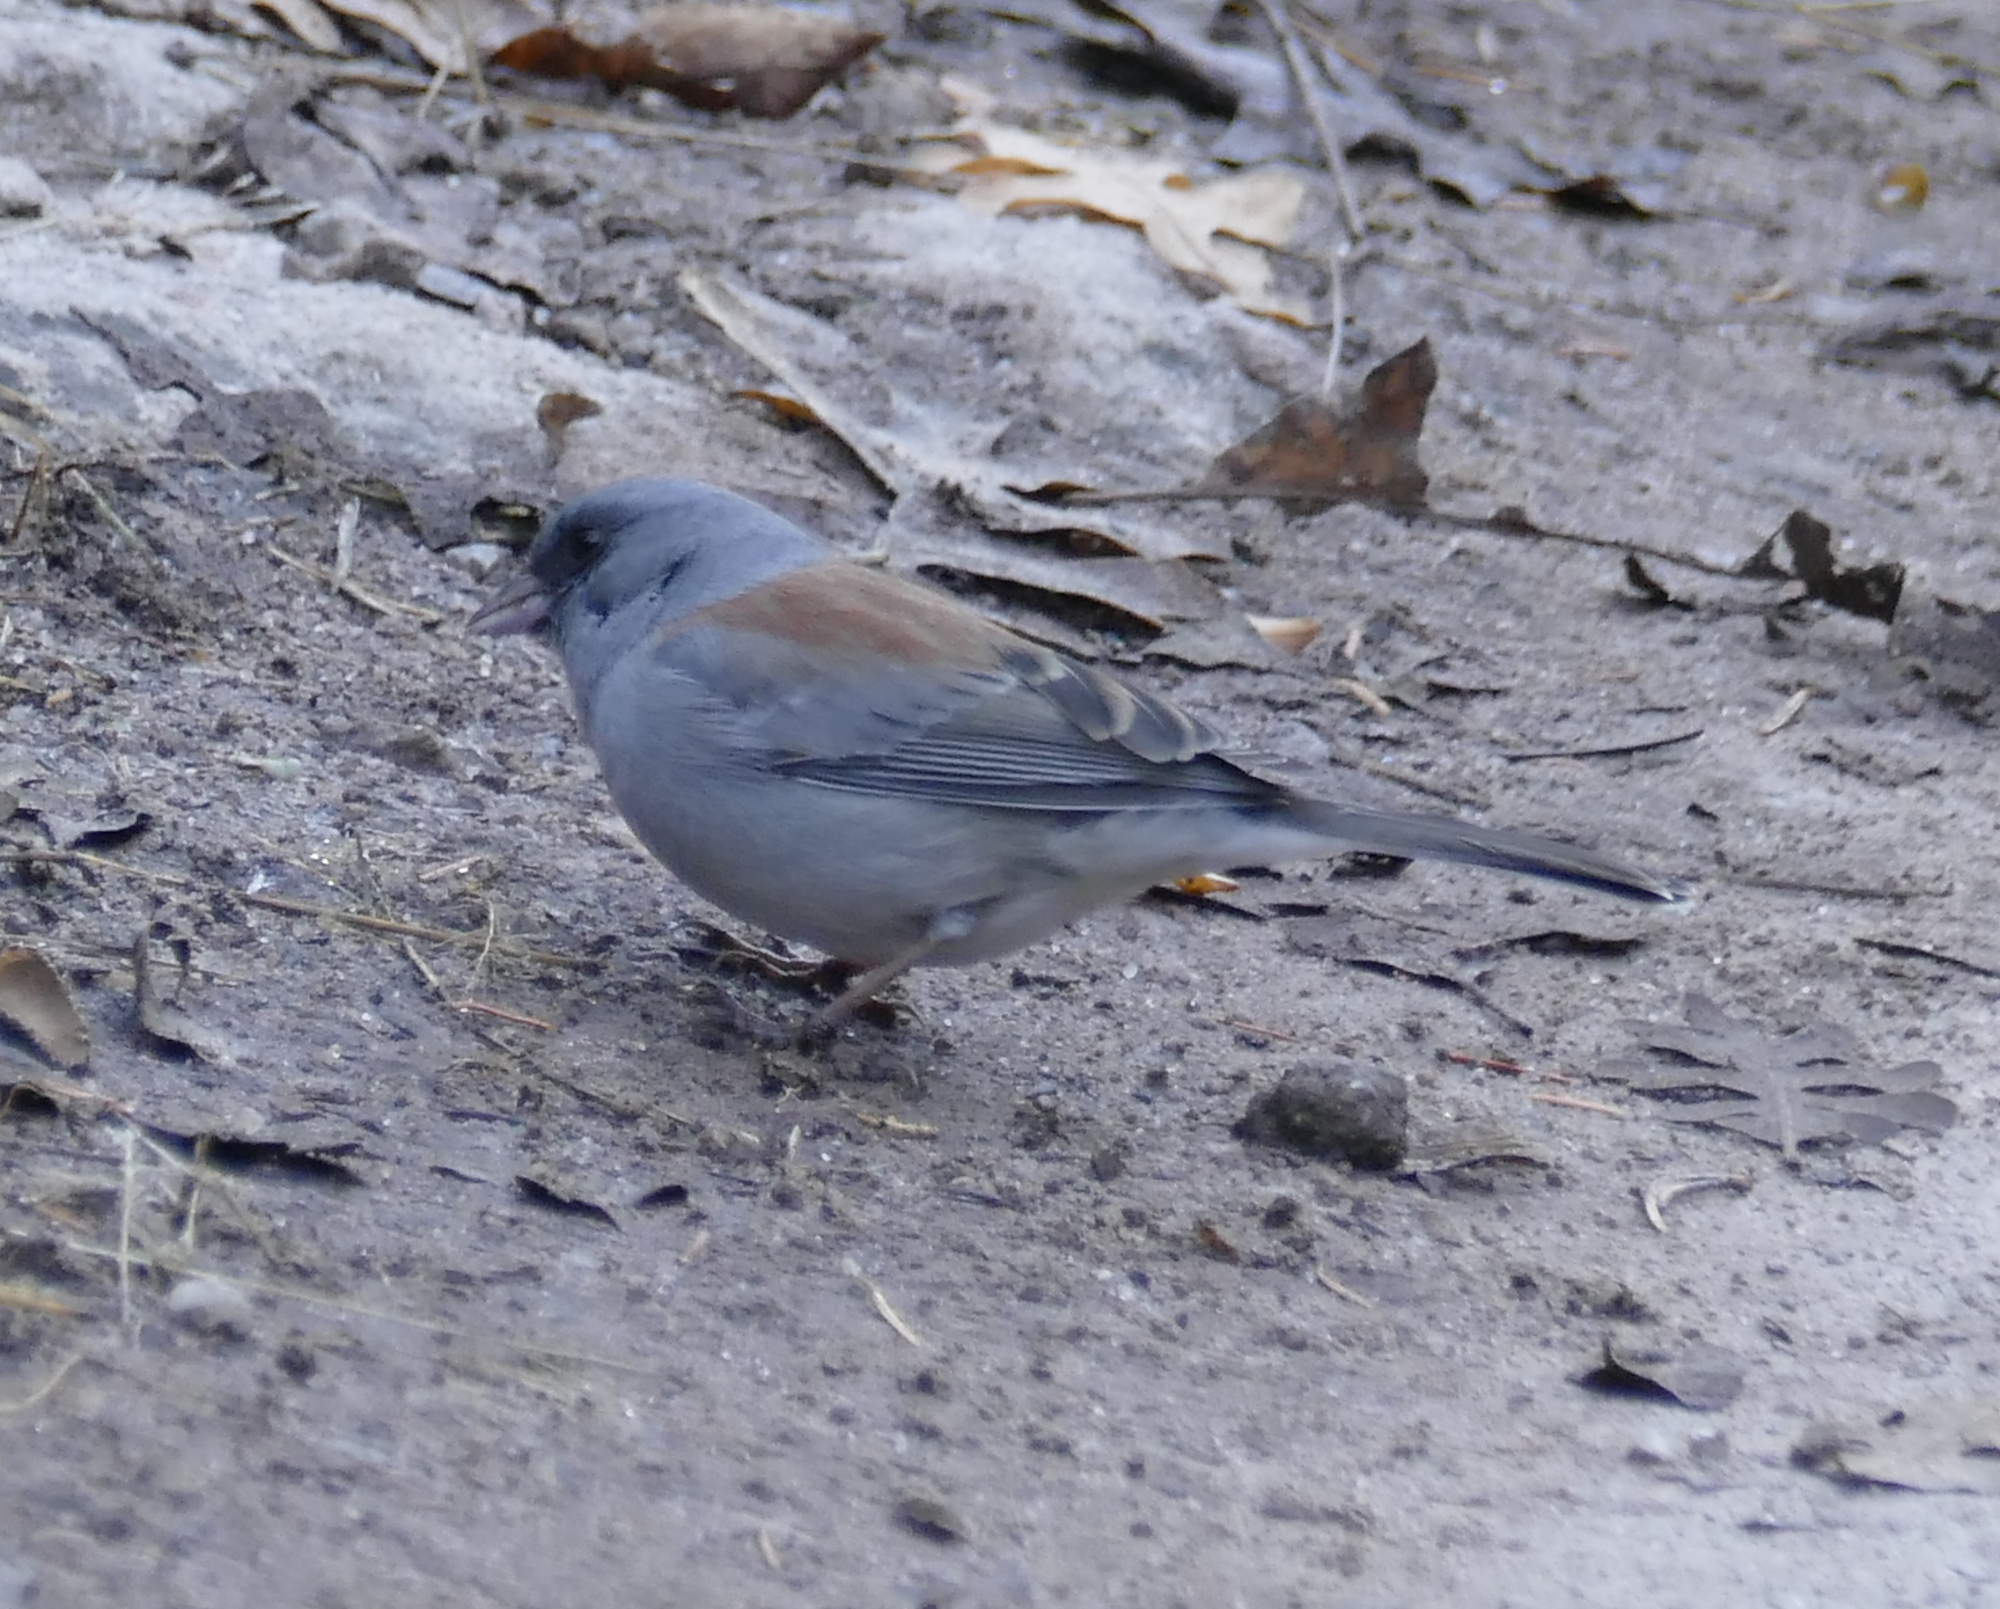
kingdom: Animalia
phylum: Chordata
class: Aves
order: Passeriformes
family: Passerellidae
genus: Junco
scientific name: Junco hyemalis
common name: Dark-eyed junco
